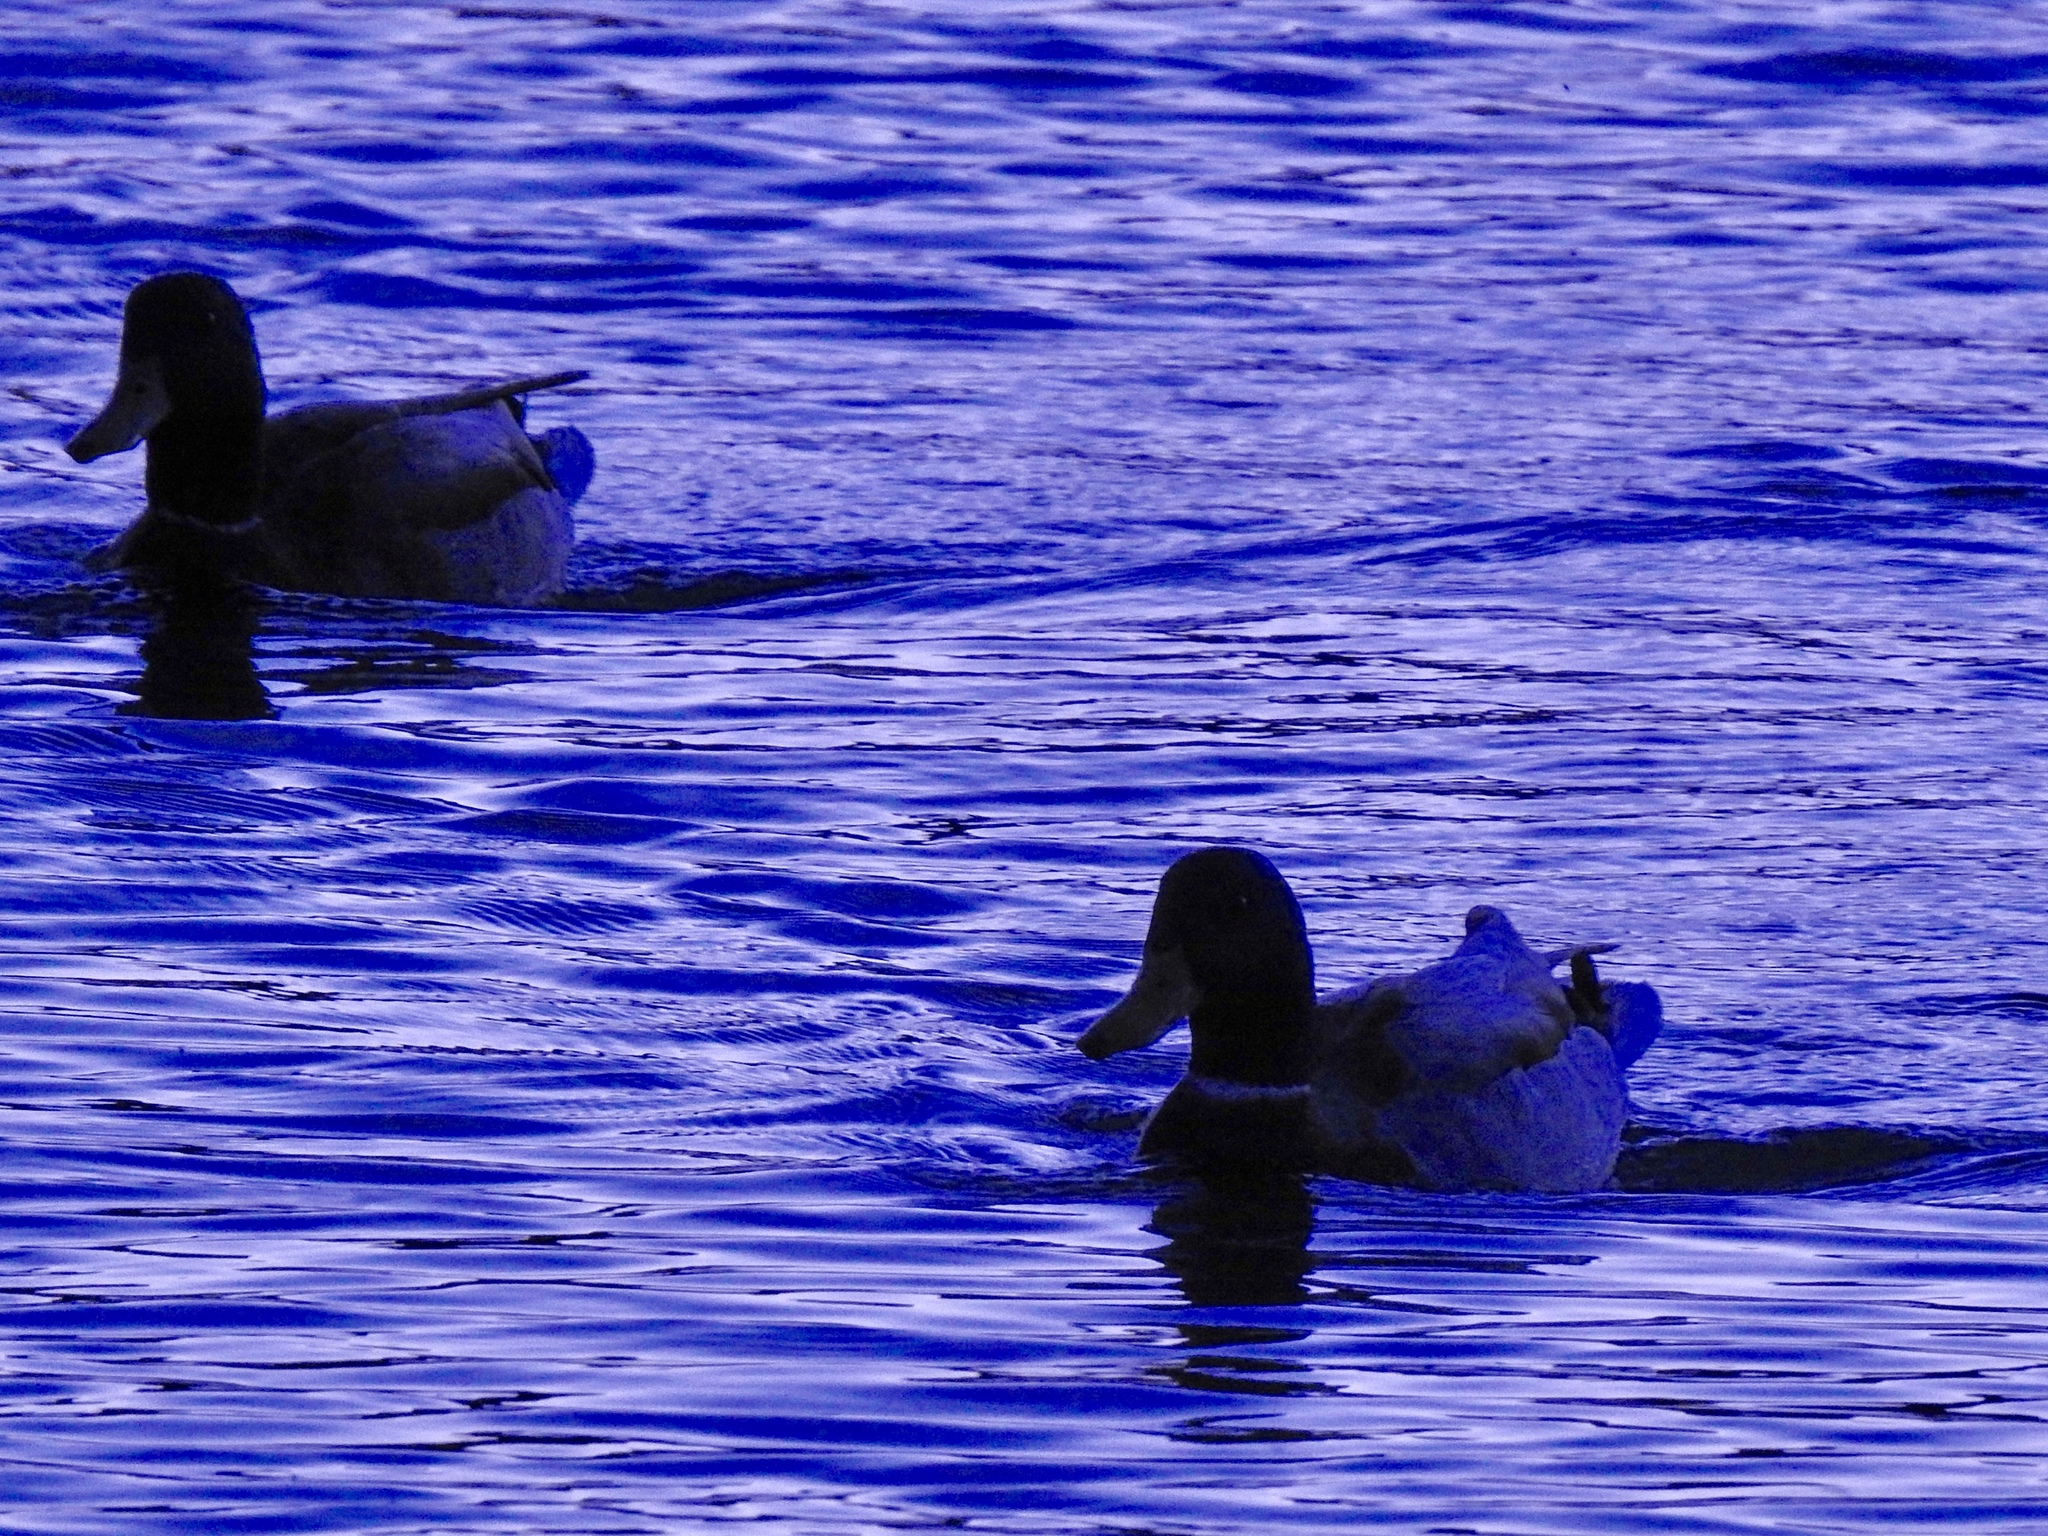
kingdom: Animalia
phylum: Chordata
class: Aves
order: Anseriformes
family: Anatidae
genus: Anas
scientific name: Anas platyrhynchos
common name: Mallard
